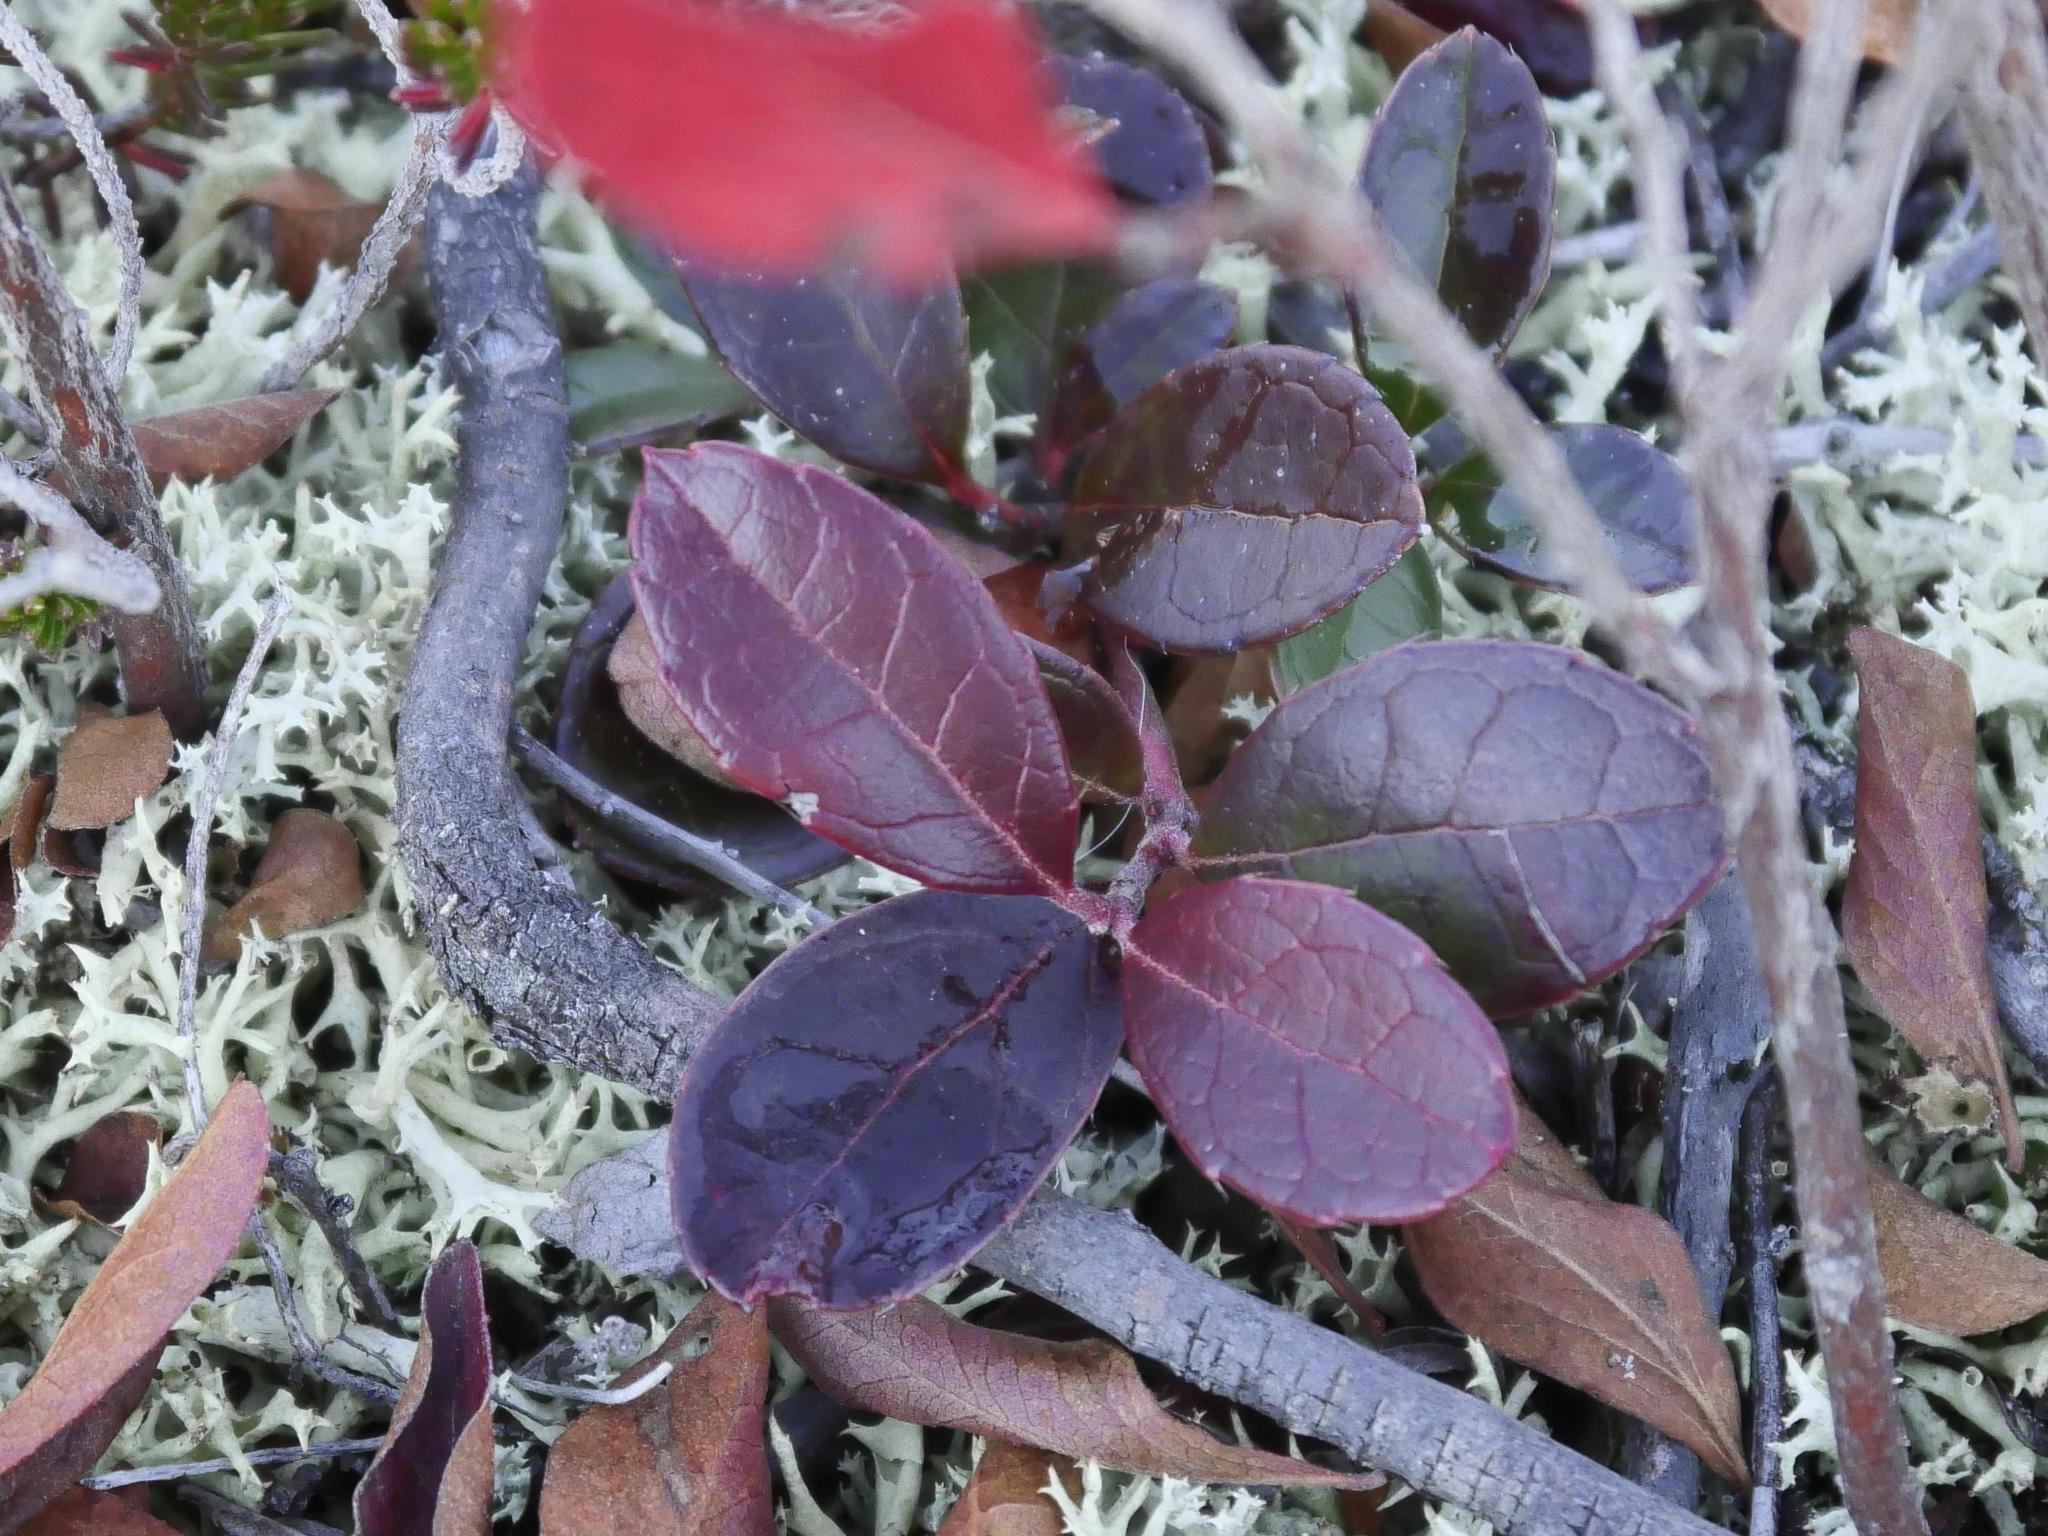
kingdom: Plantae
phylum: Tracheophyta
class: Magnoliopsida
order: Ericales
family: Ericaceae
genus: Gaultheria
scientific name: Gaultheria procumbens
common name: Checkerberry
